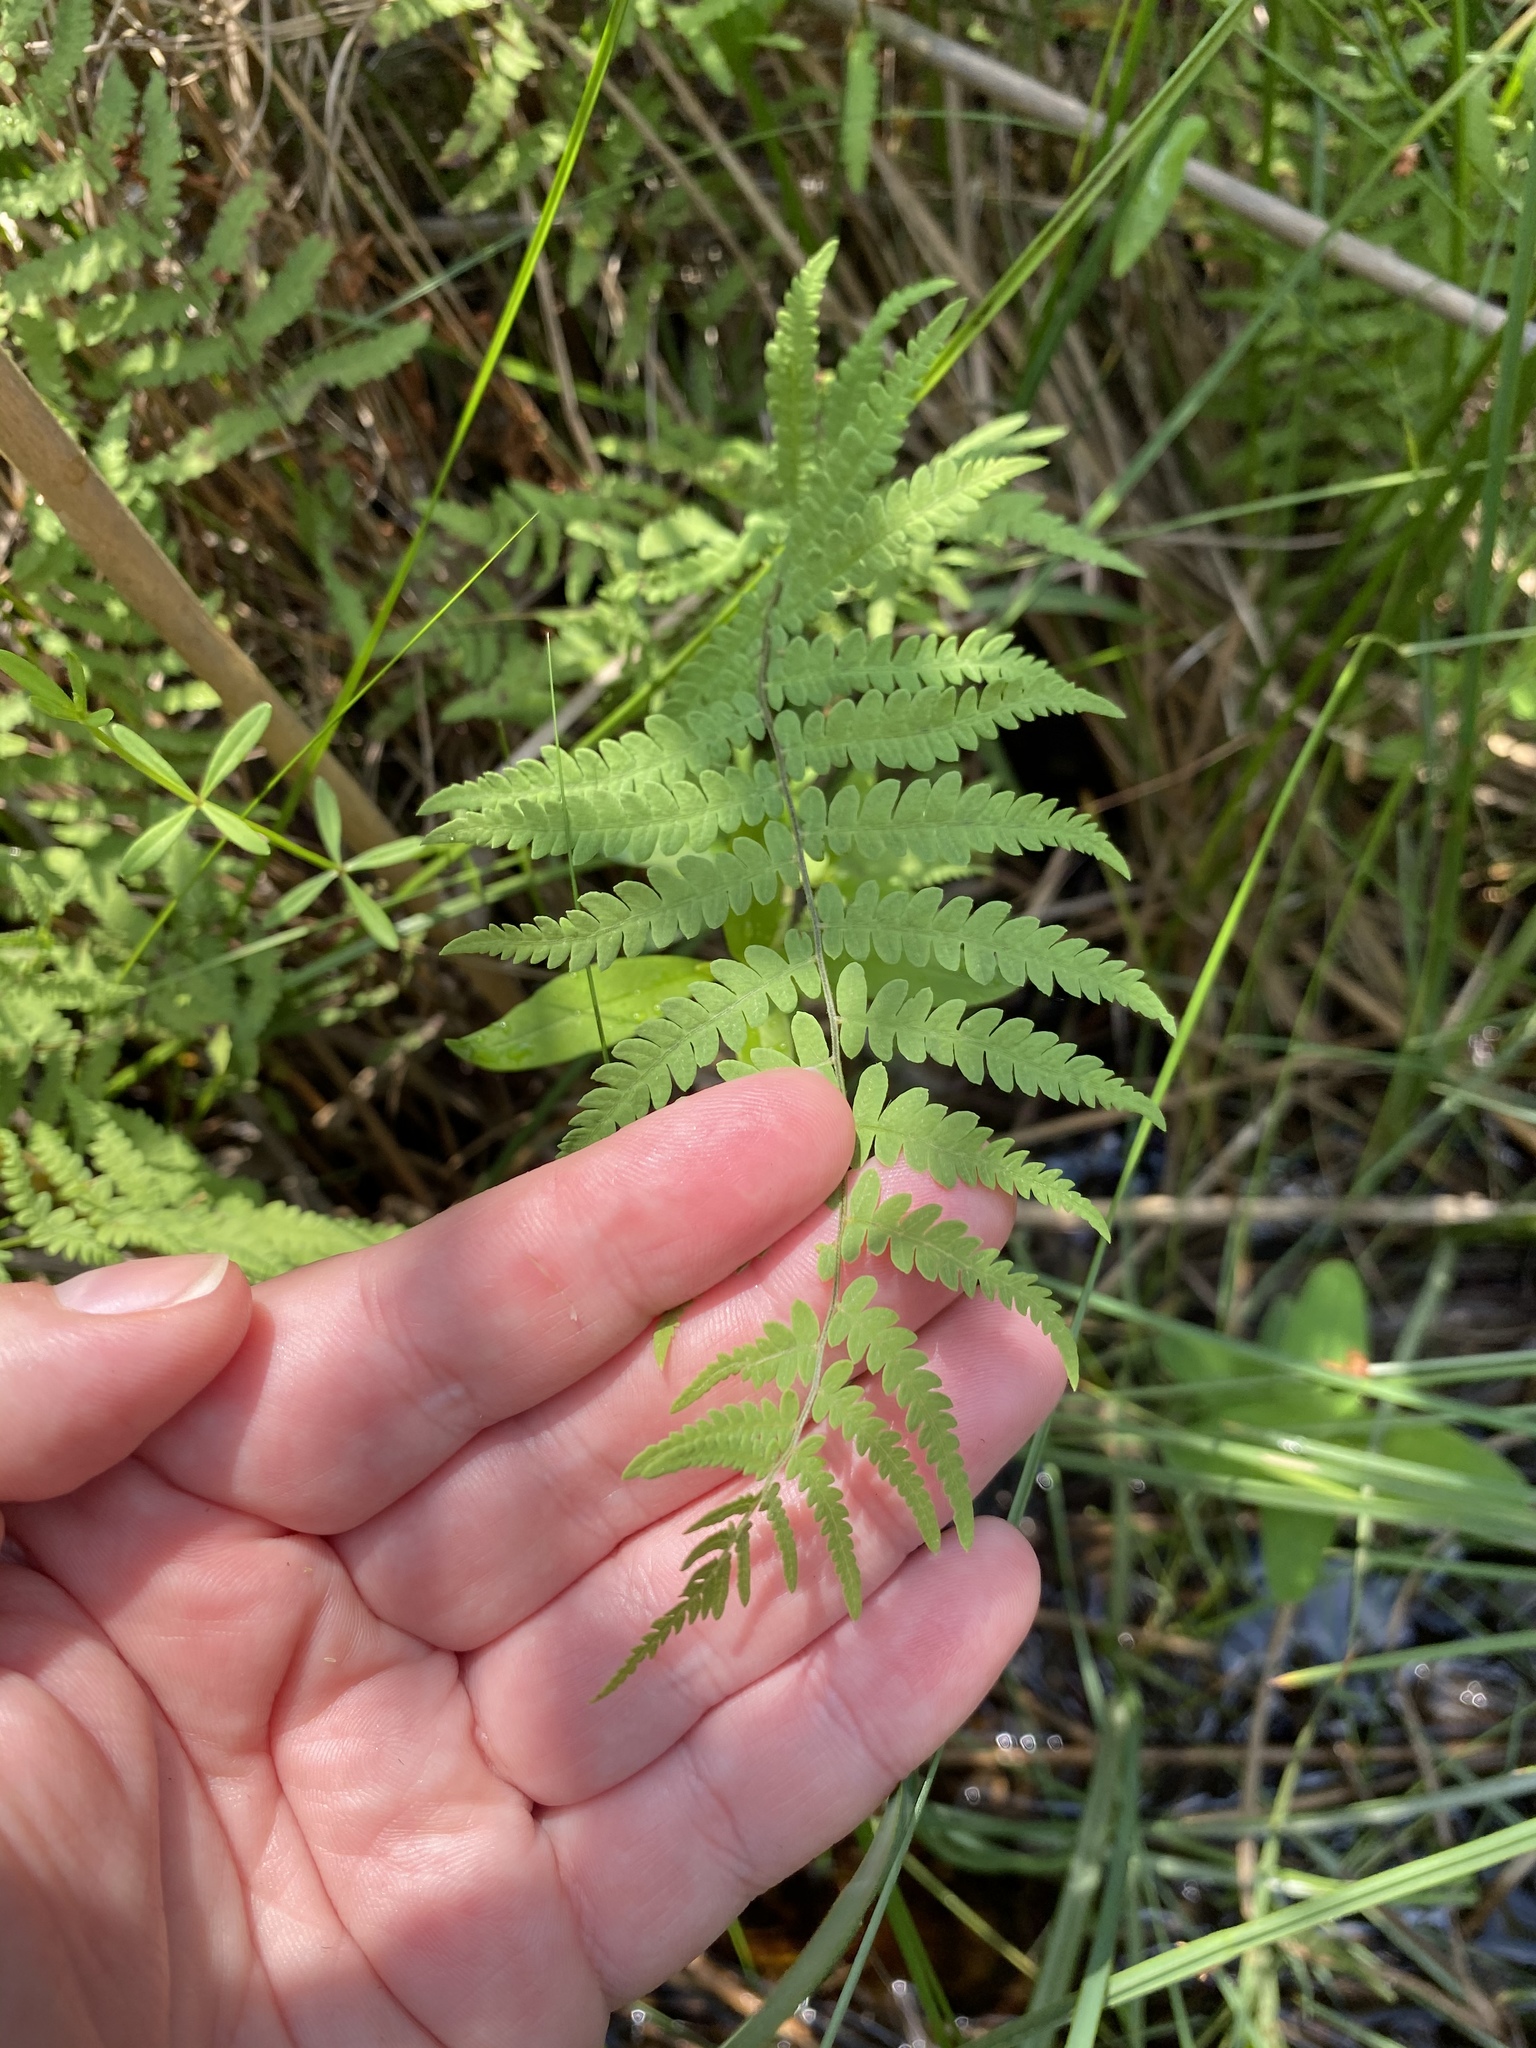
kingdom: Plantae
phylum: Tracheophyta
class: Polypodiopsida
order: Polypodiales
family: Thelypteridaceae
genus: Thelypteris
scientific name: Thelypteris palustris
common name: Marsh fern
